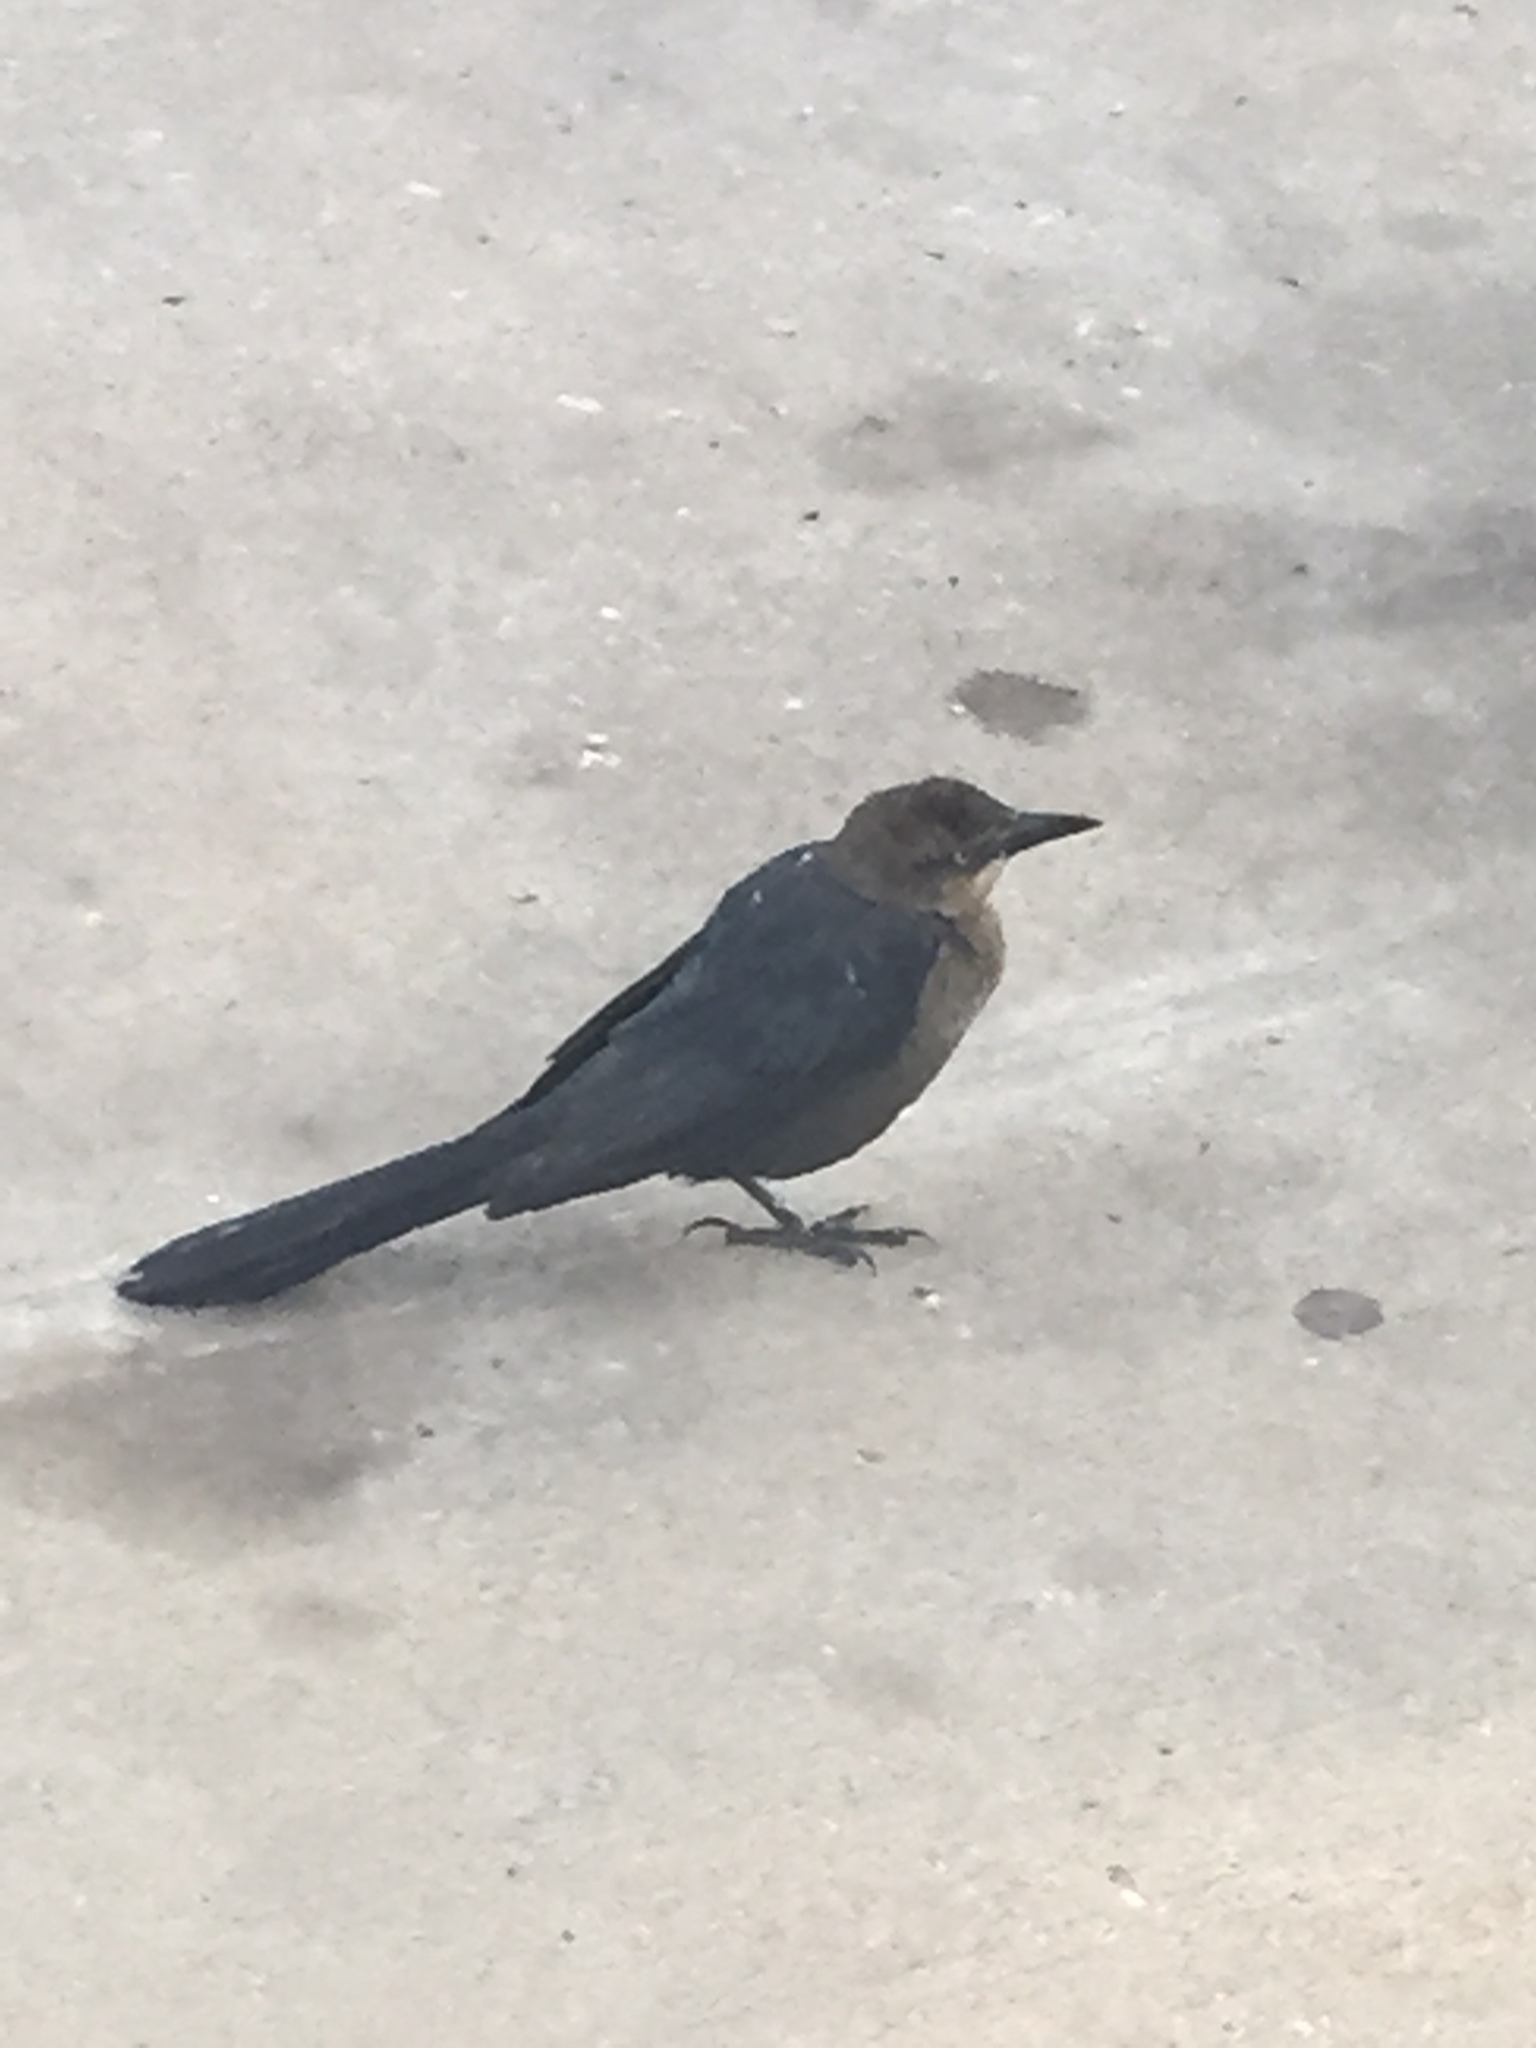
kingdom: Animalia
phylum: Chordata
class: Aves
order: Passeriformes
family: Icteridae
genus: Quiscalus
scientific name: Quiscalus mexicanus
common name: Great-tailed grackle
